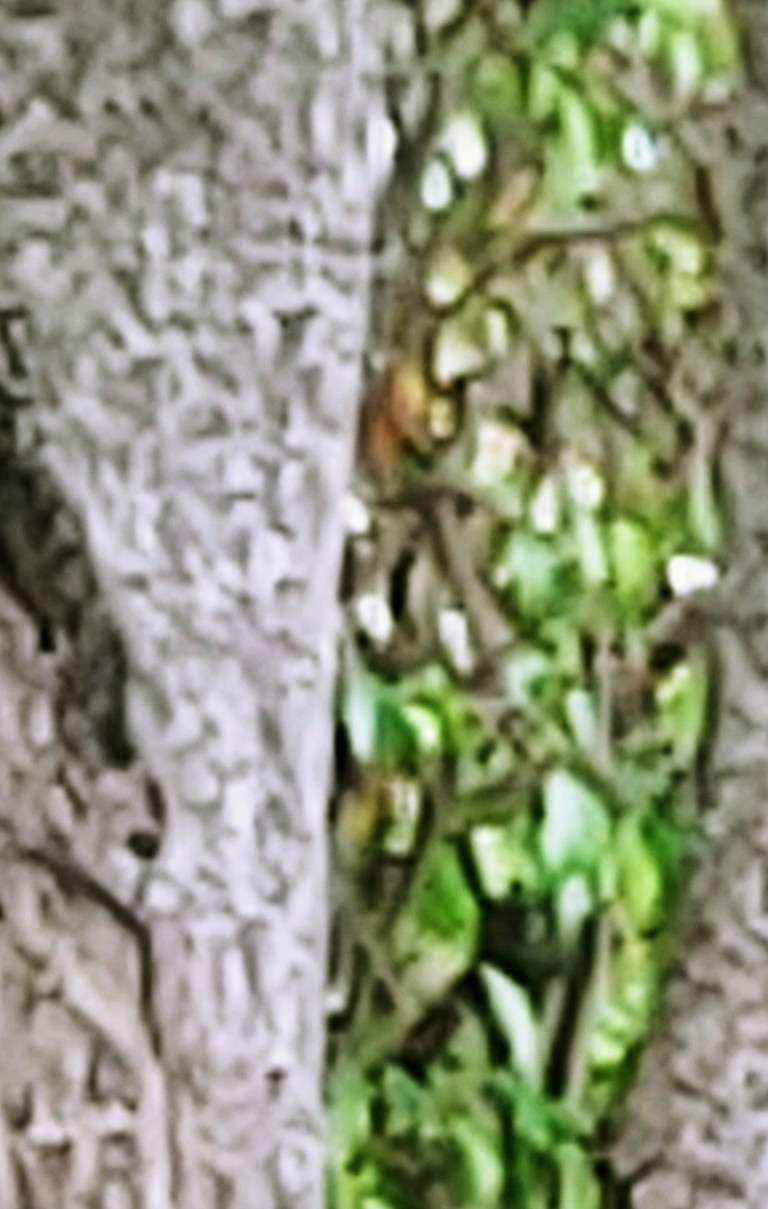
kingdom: Animalia
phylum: Chordata
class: Aves
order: Passeriformes
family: Icteridae
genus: Icterus
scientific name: Icterus pectoralis
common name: Spot-breasted oriole
